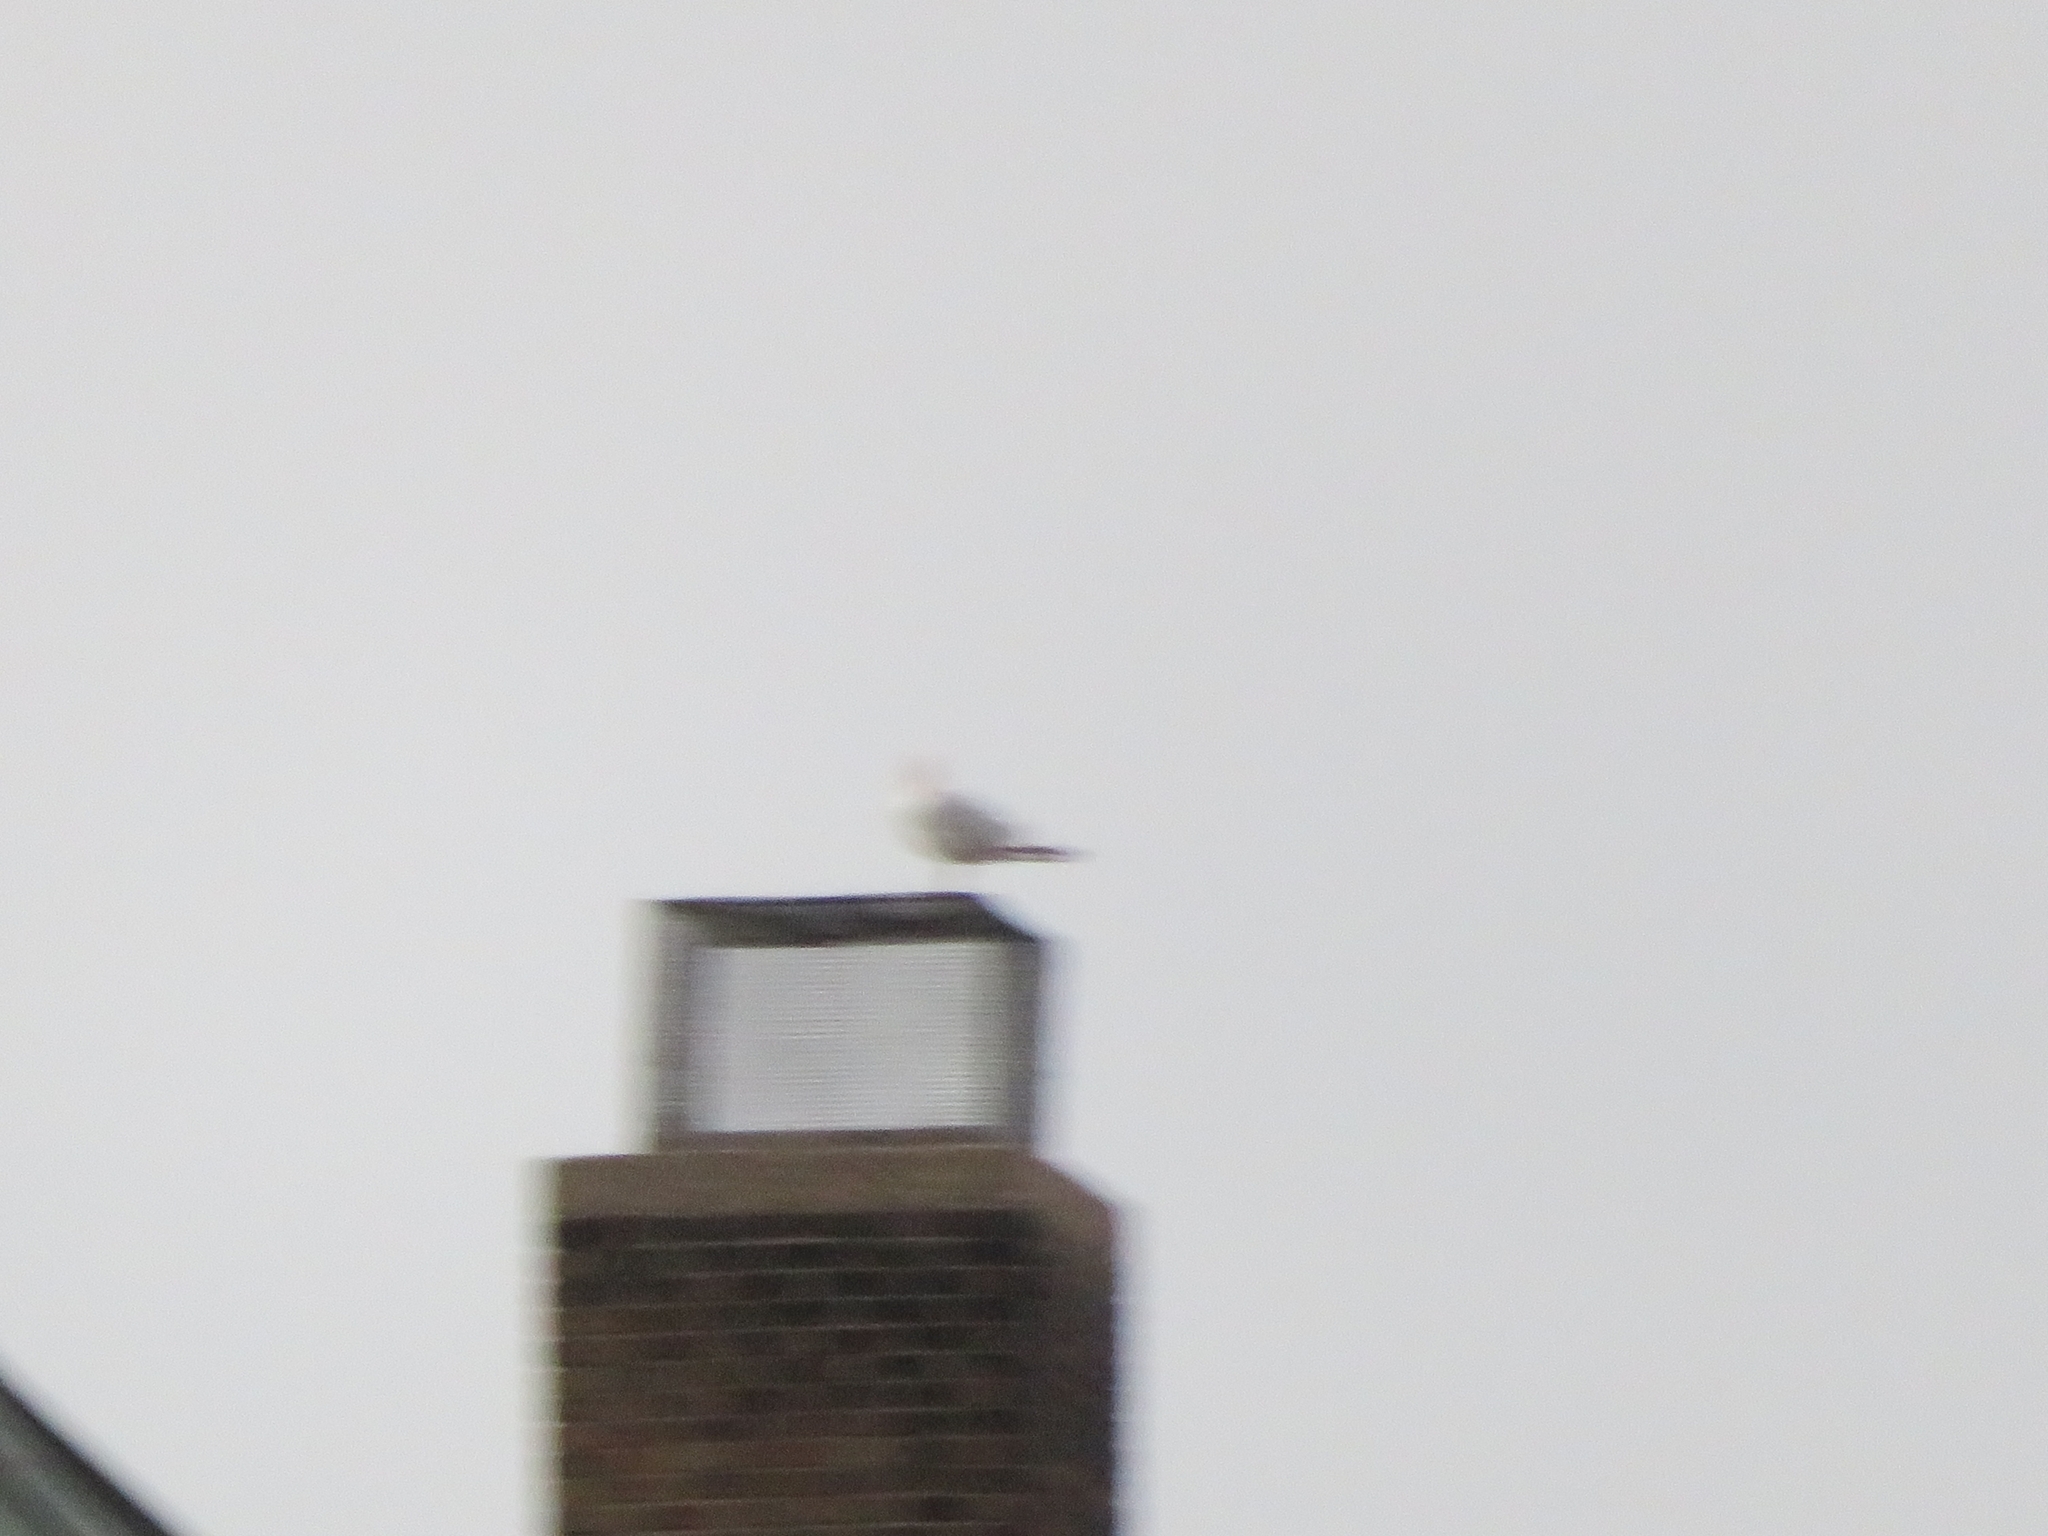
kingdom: Animalia
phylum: Chordata
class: Aves
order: Charadriiformes
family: Laridae
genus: Larus
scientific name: Larus argentatus
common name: Herring gull
